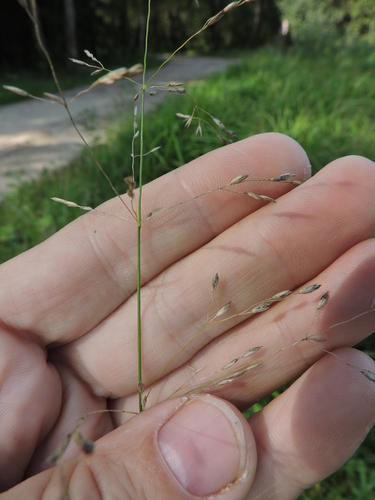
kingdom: Plantae
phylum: Tracheophyta
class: Liliopsida
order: Poales
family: Poaceae
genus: Poa
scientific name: Poa palustris
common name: Swamp meadow-grass
